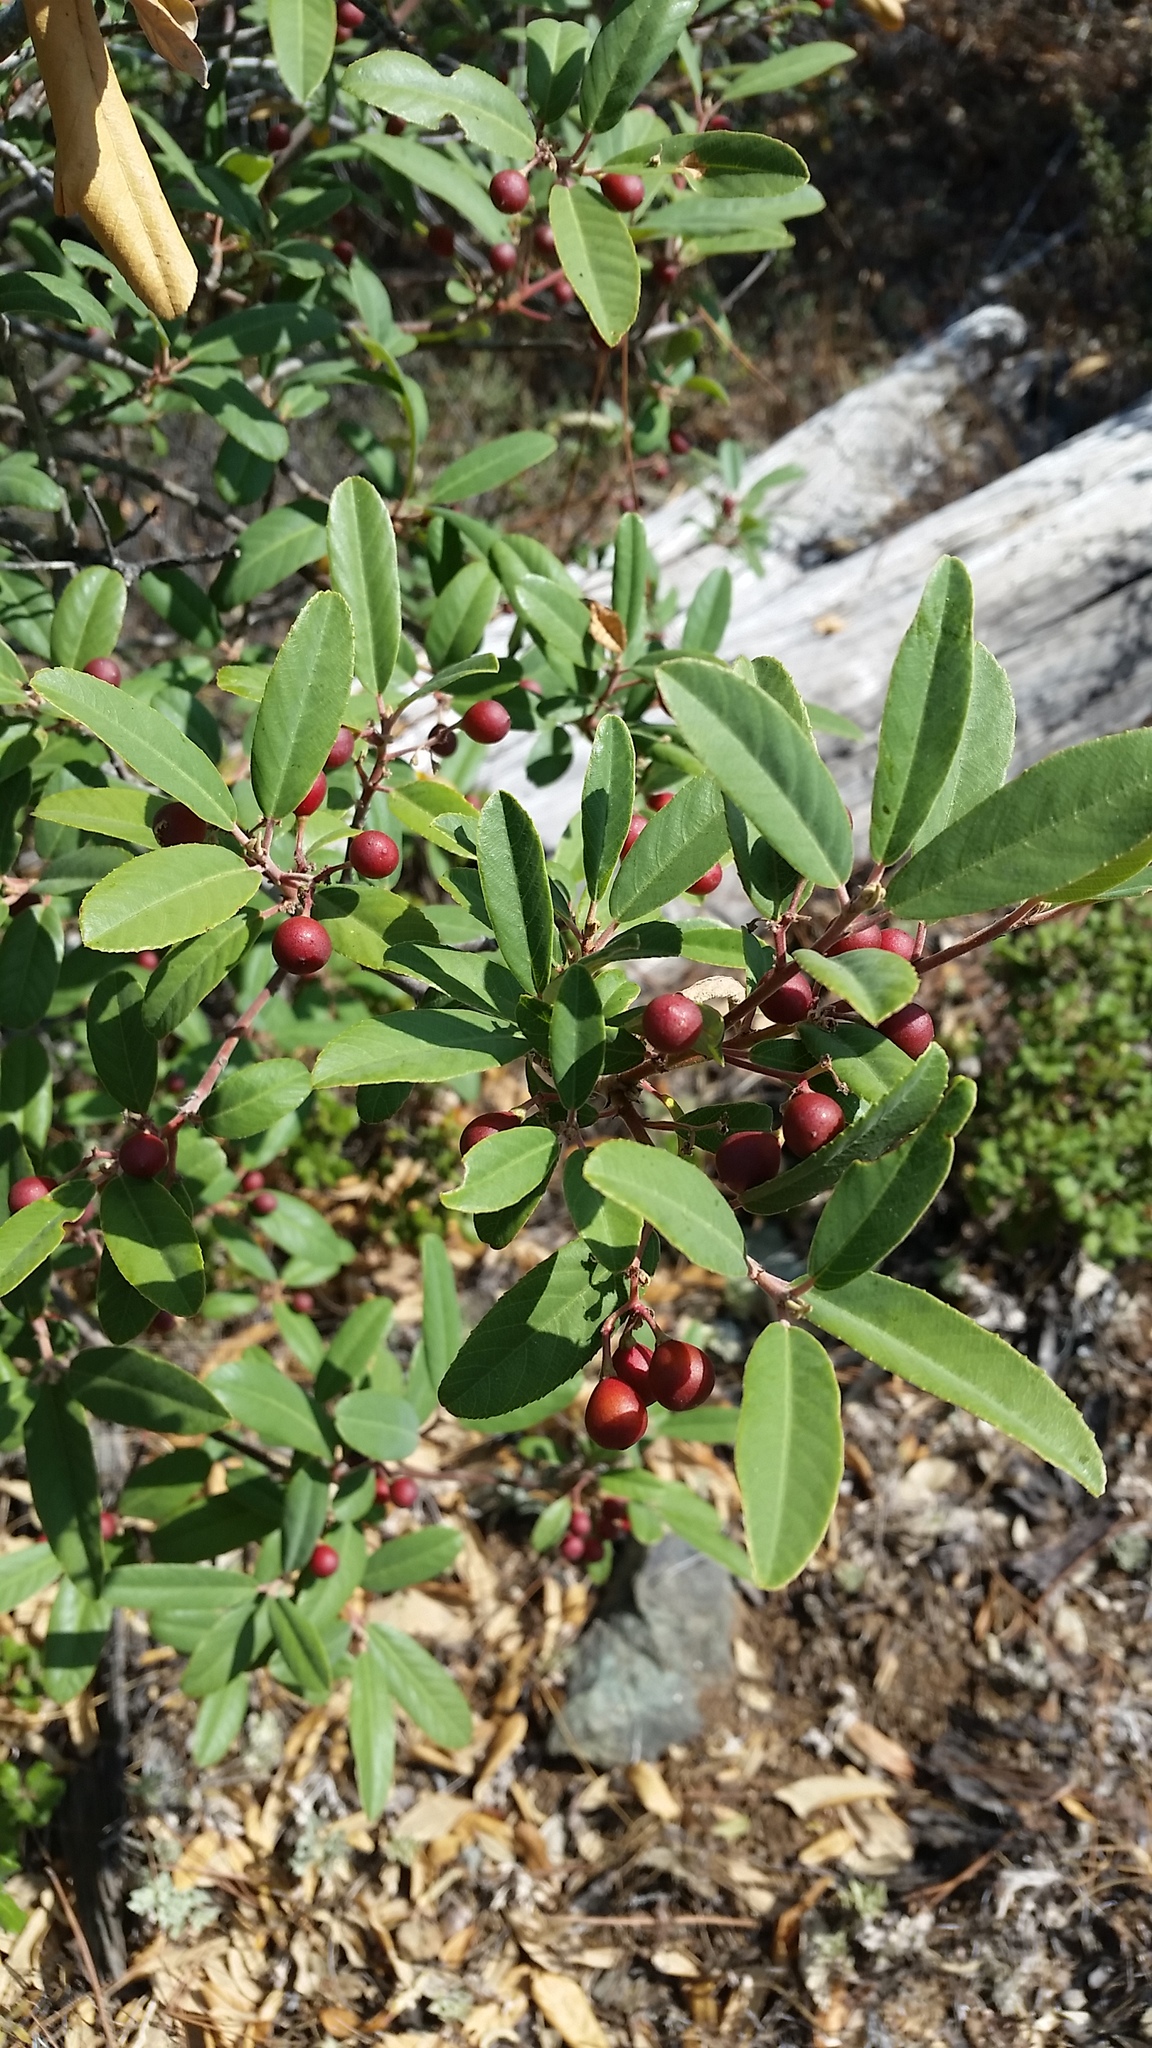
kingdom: Plantae
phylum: Tracheophyta
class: Magnoliopsida
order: Rosales
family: Rhamnaceae
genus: Frangula
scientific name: Frangula californica
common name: California buckthorn
